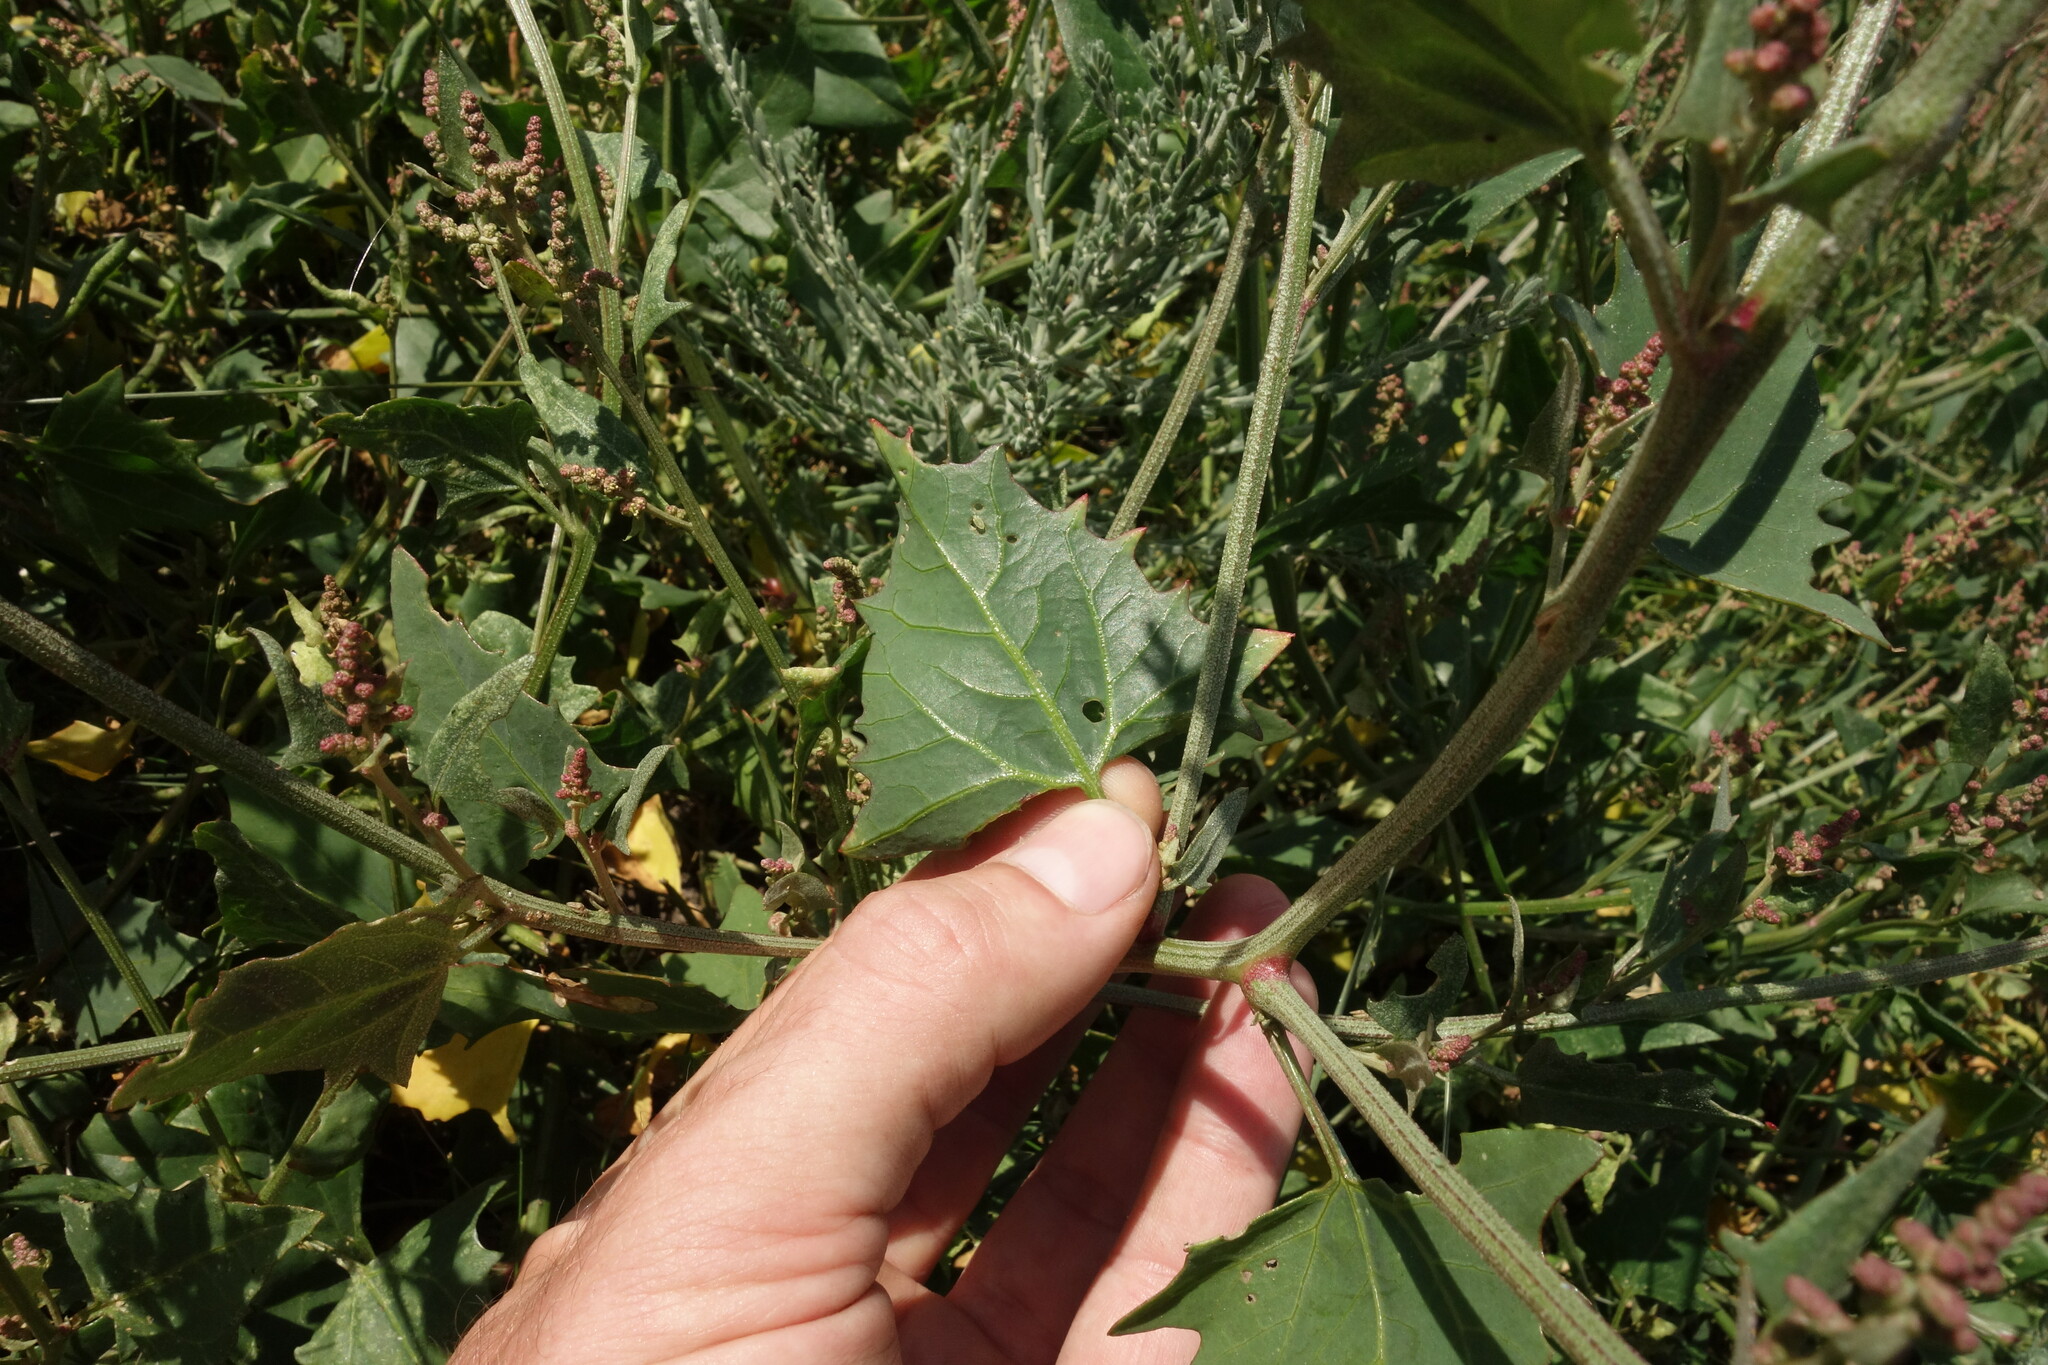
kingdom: Plantae
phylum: Tracheophyta
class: Magnoliopsida
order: Caryophyllales
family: Amaranthaceae
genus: Atriplex
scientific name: Atriplex prostrata
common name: Spear-leaved orache
